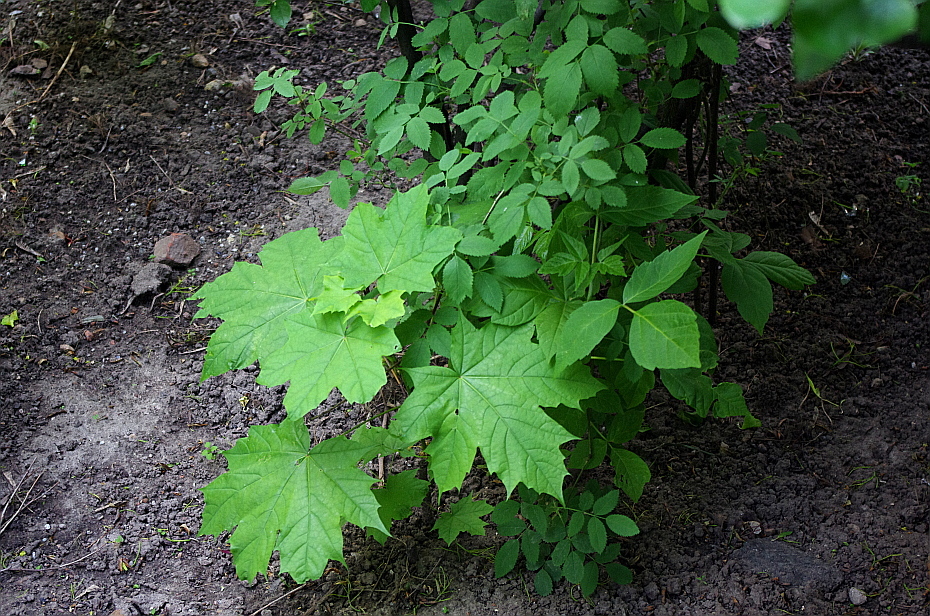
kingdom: Plantae
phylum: Tracheophyta
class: Magnoliopsida
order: Sapindales
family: Sapindaceae
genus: Acer
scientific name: Acer platanoides
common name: Norway maple
